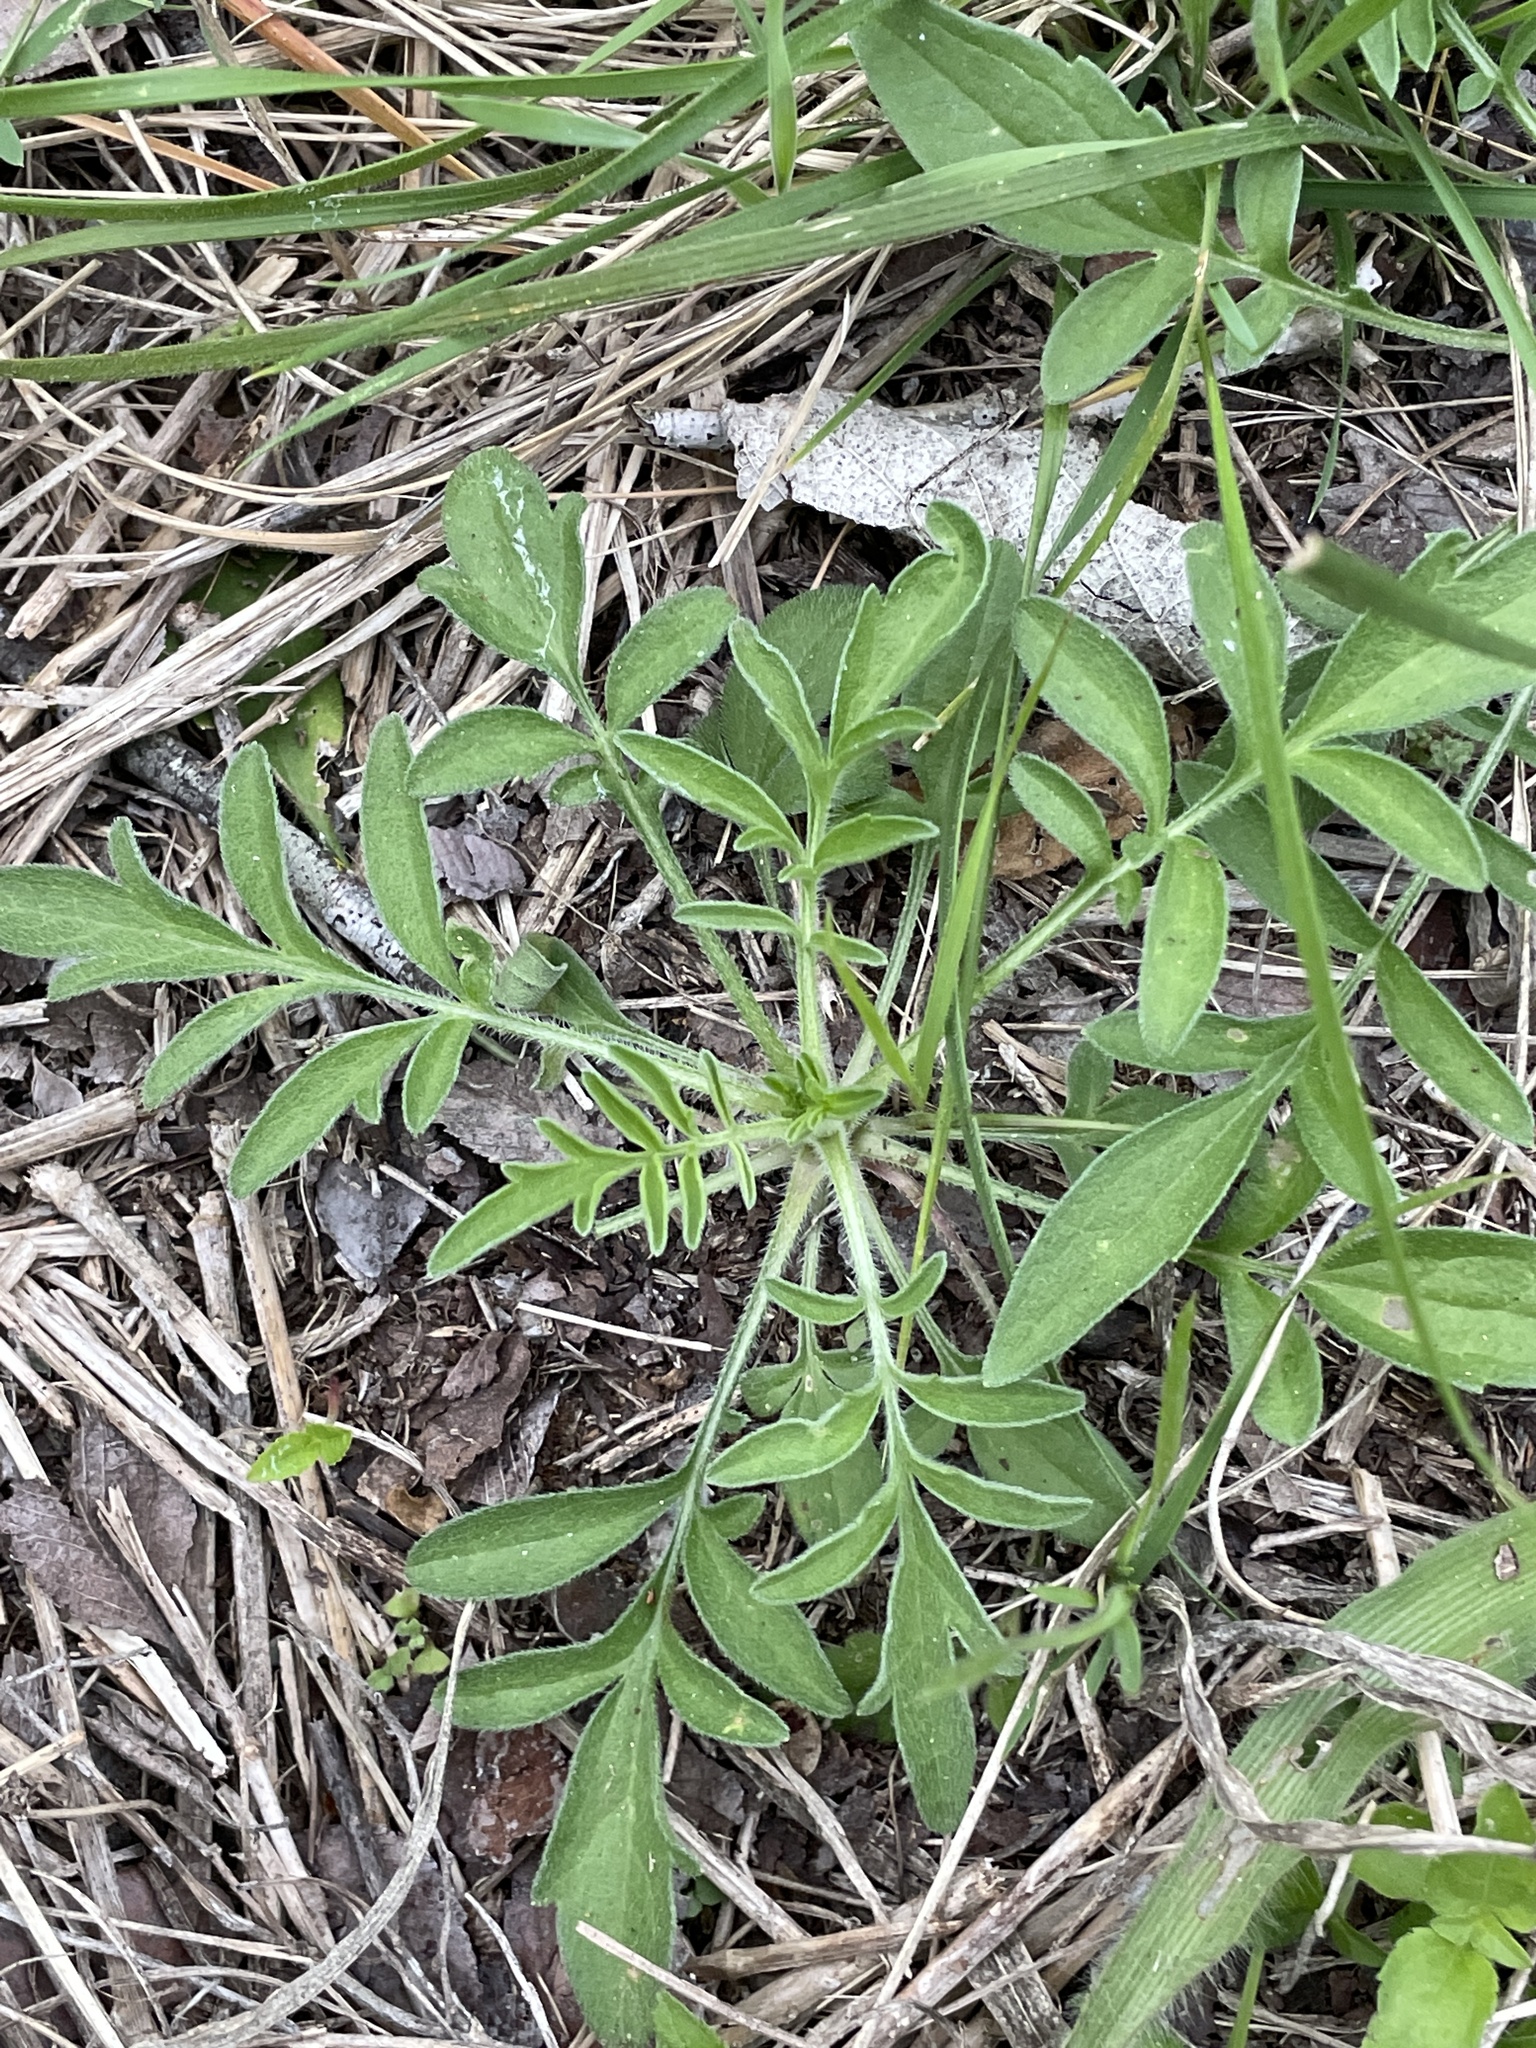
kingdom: Plantae
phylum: Tracheophyta
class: Magnoliopsida
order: Asterales
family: Asteraceae
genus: Ratibida
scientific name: Ratibida columnifera
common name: Prairie coneflower
